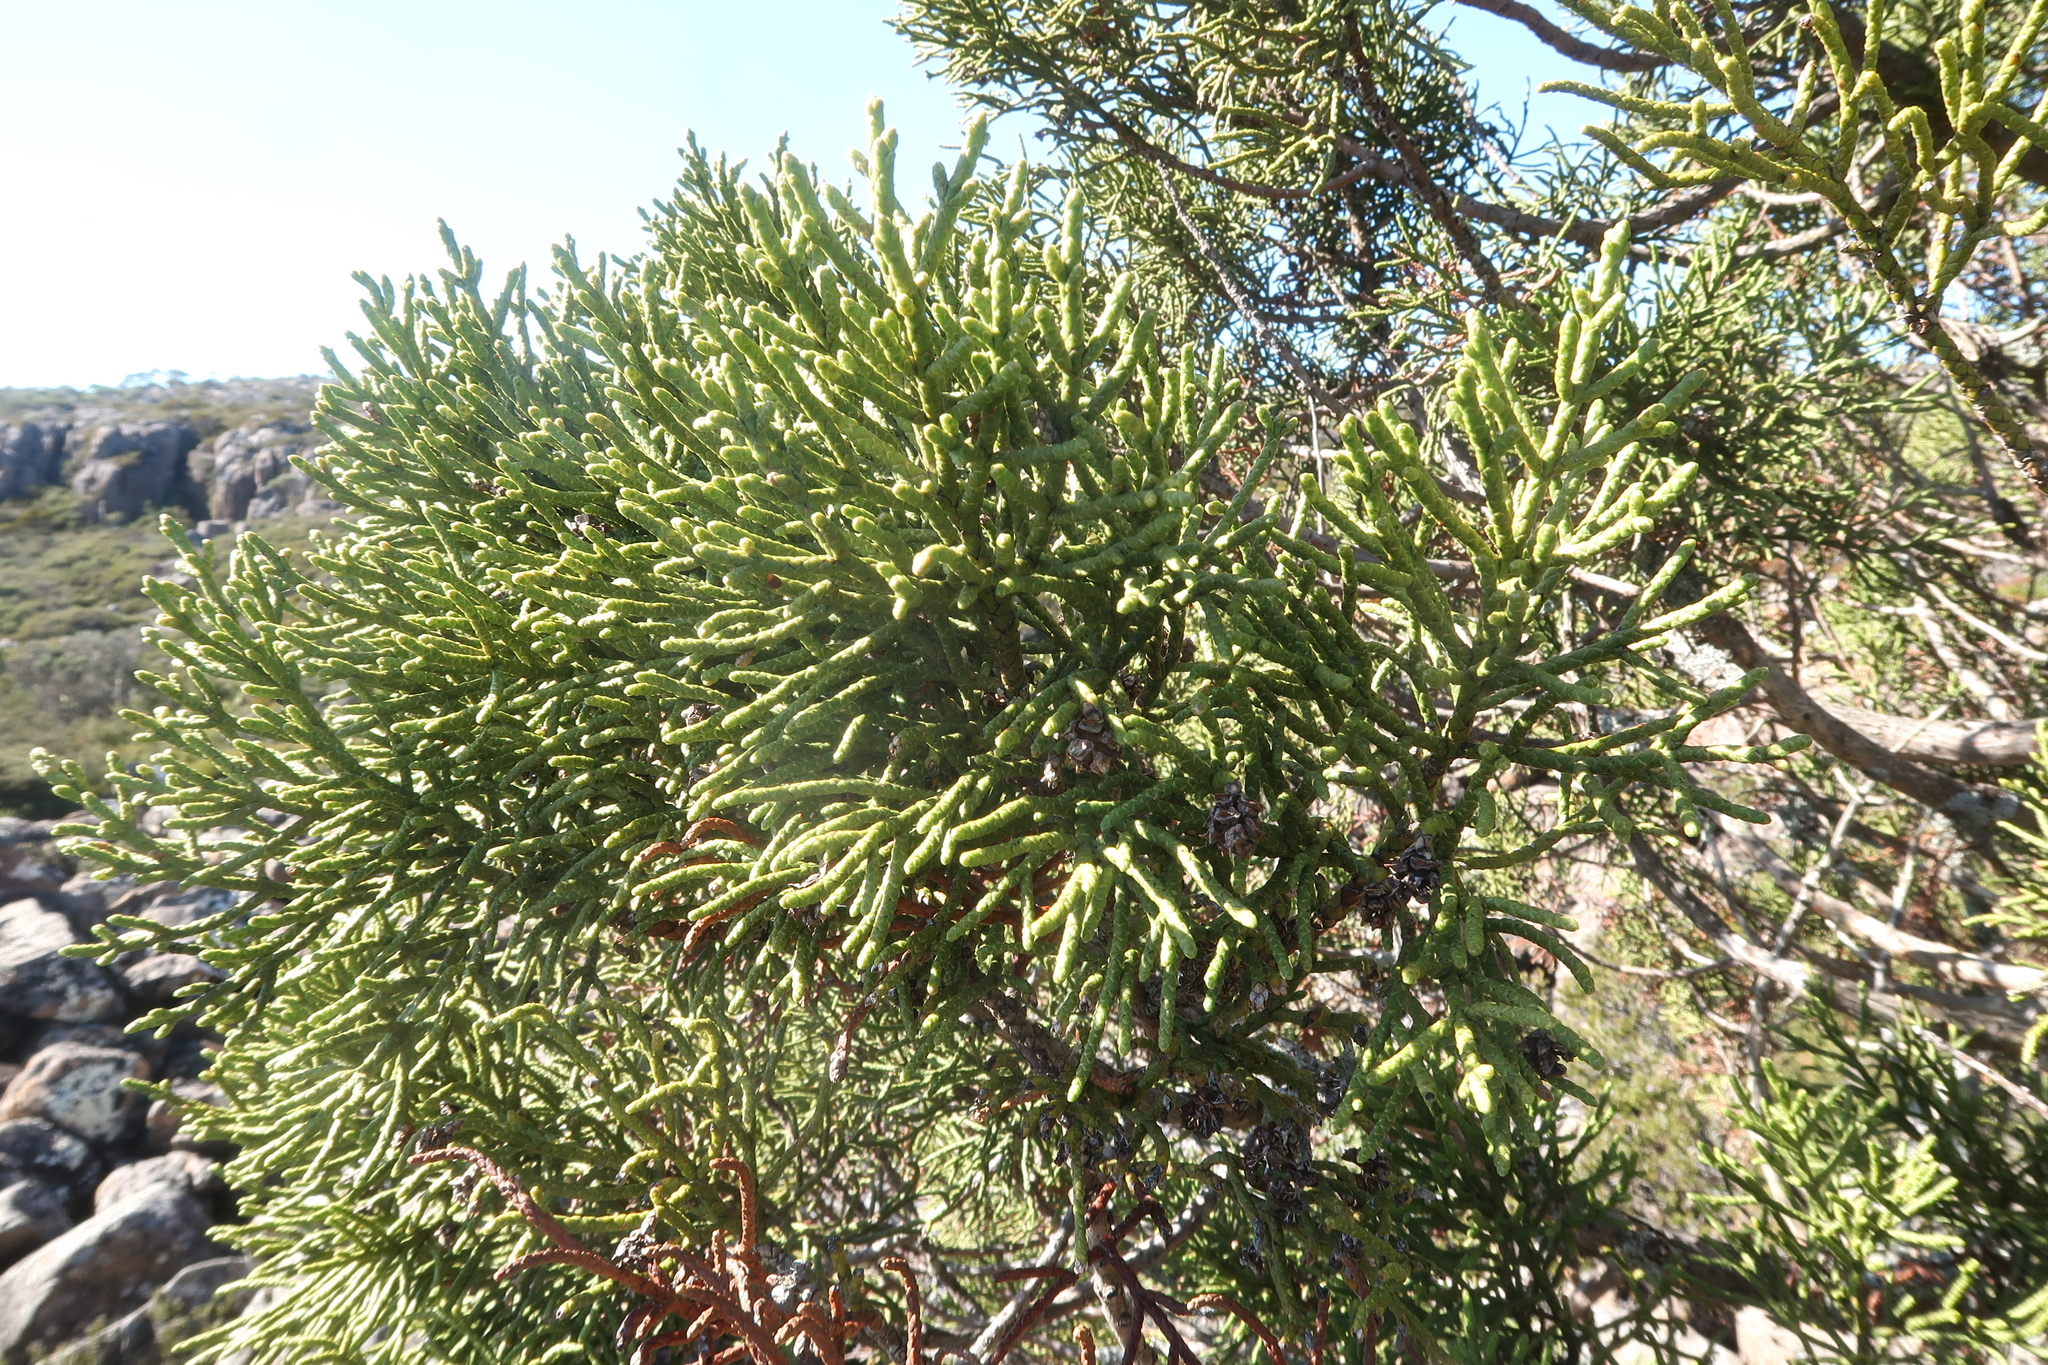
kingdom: Plantae
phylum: Tracheophyta
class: Pinopsida
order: Pinales
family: Cupressaceae
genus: Athrotaxis
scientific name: Athrotaxis cupressoides
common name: Tasmanian pencil pine
